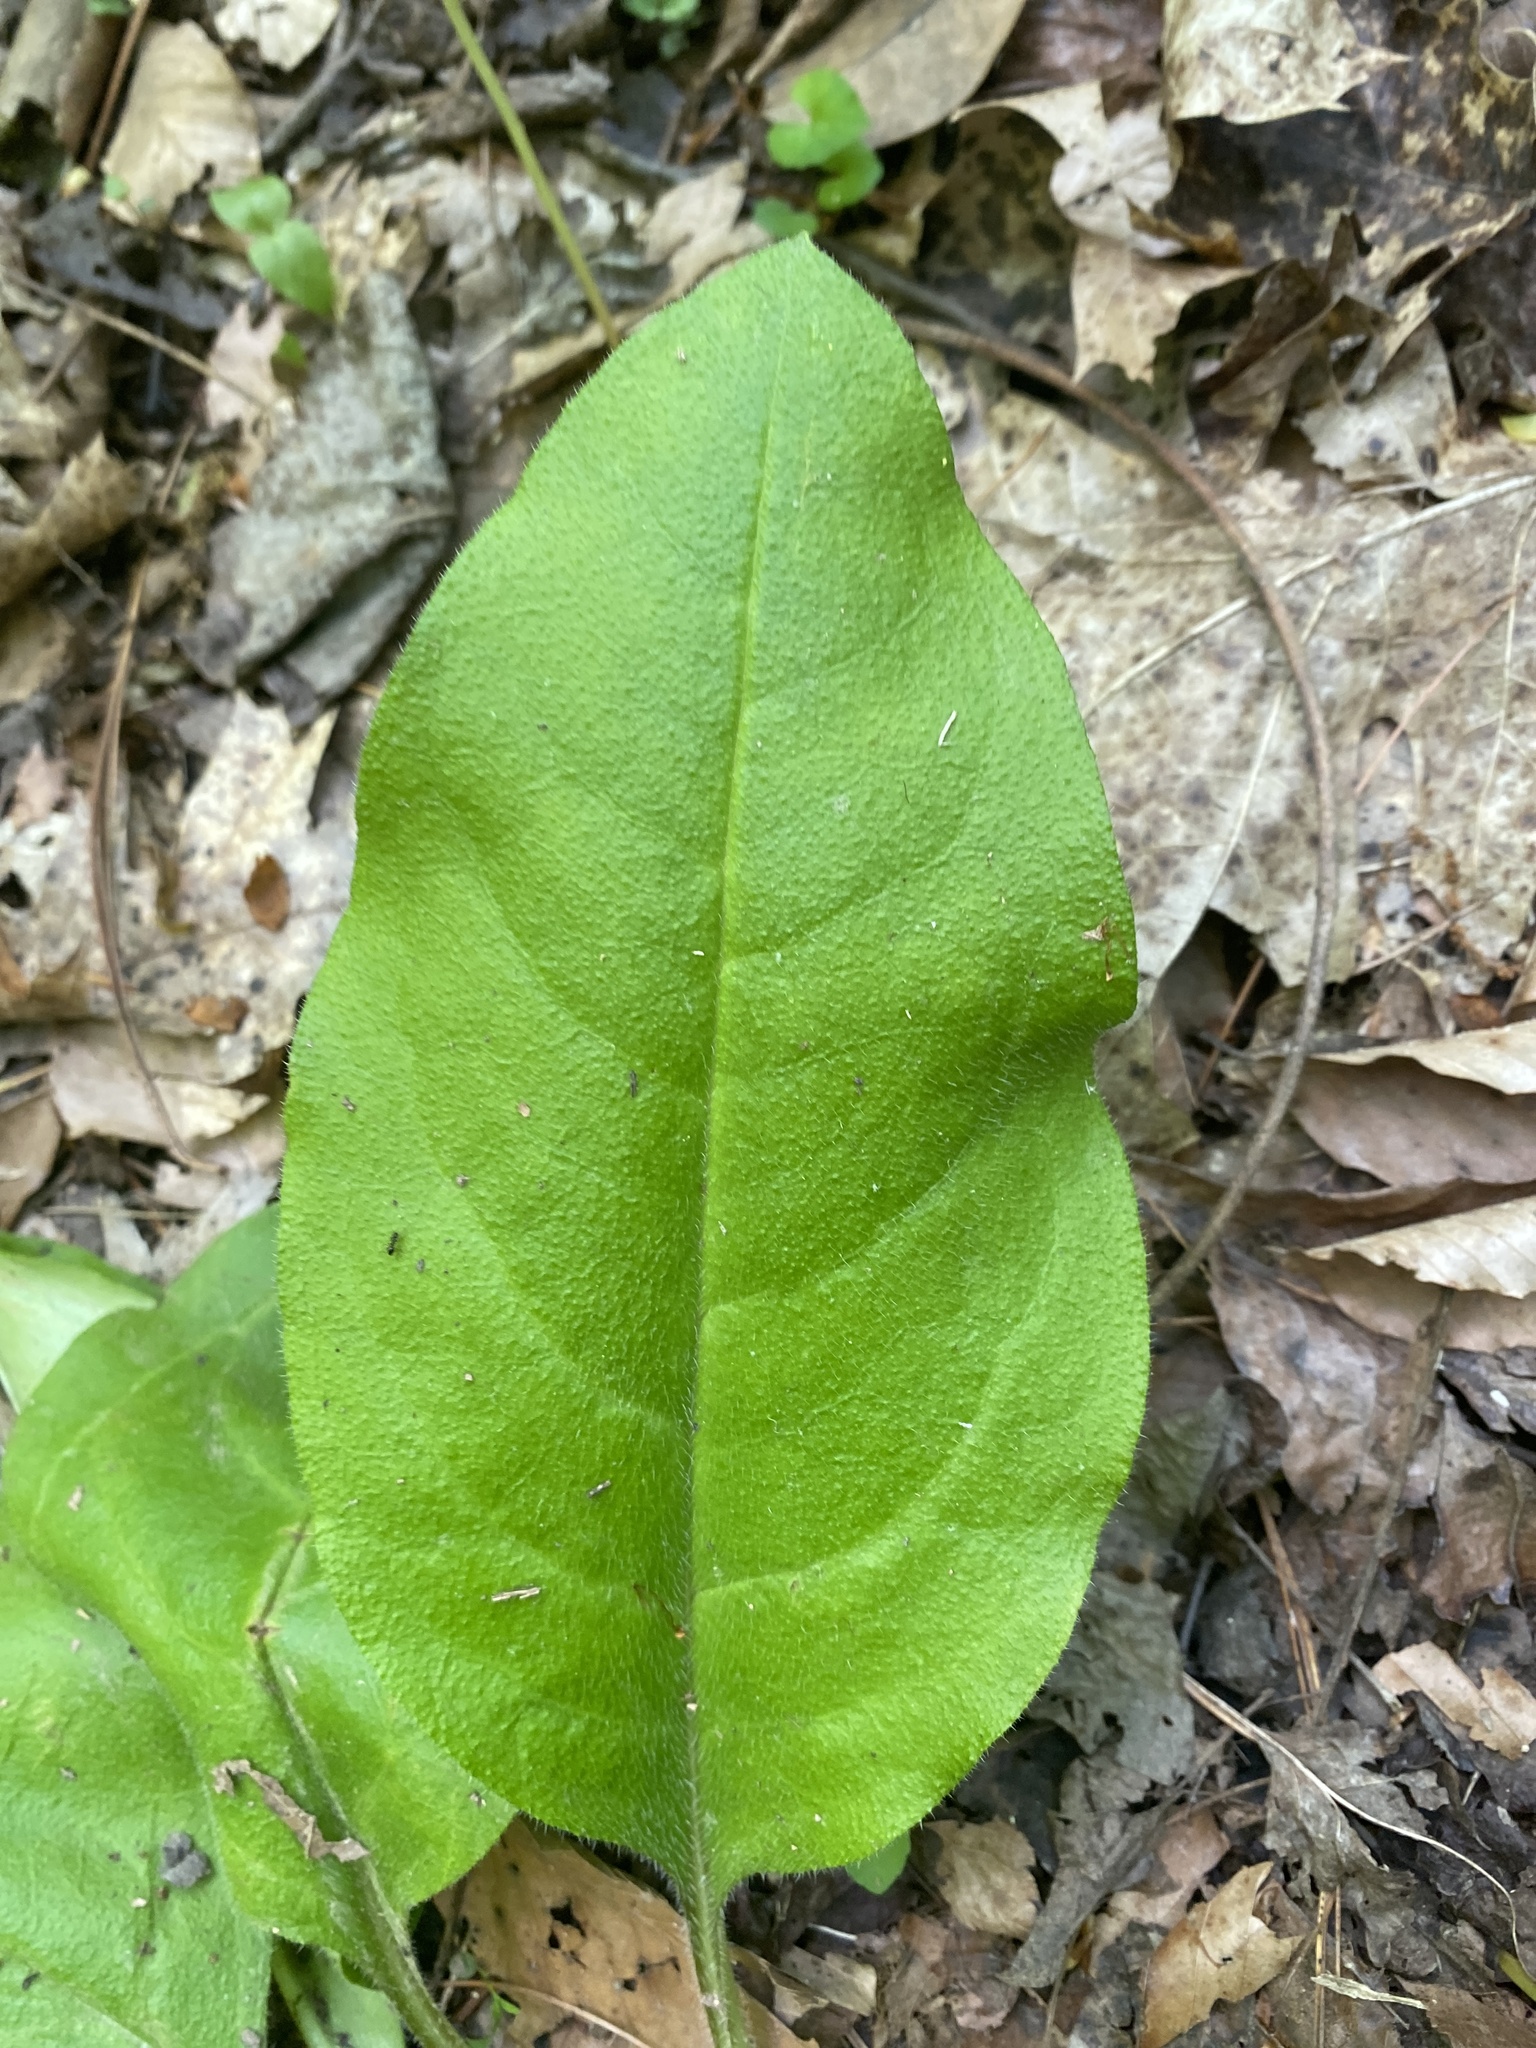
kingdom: Plantae
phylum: Tracheophyta
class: Magnoliopsida
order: Boraginales
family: Boraginaceae
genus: Andersonglossum
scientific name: Andersonglossum virginianum
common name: Wild comfrey
